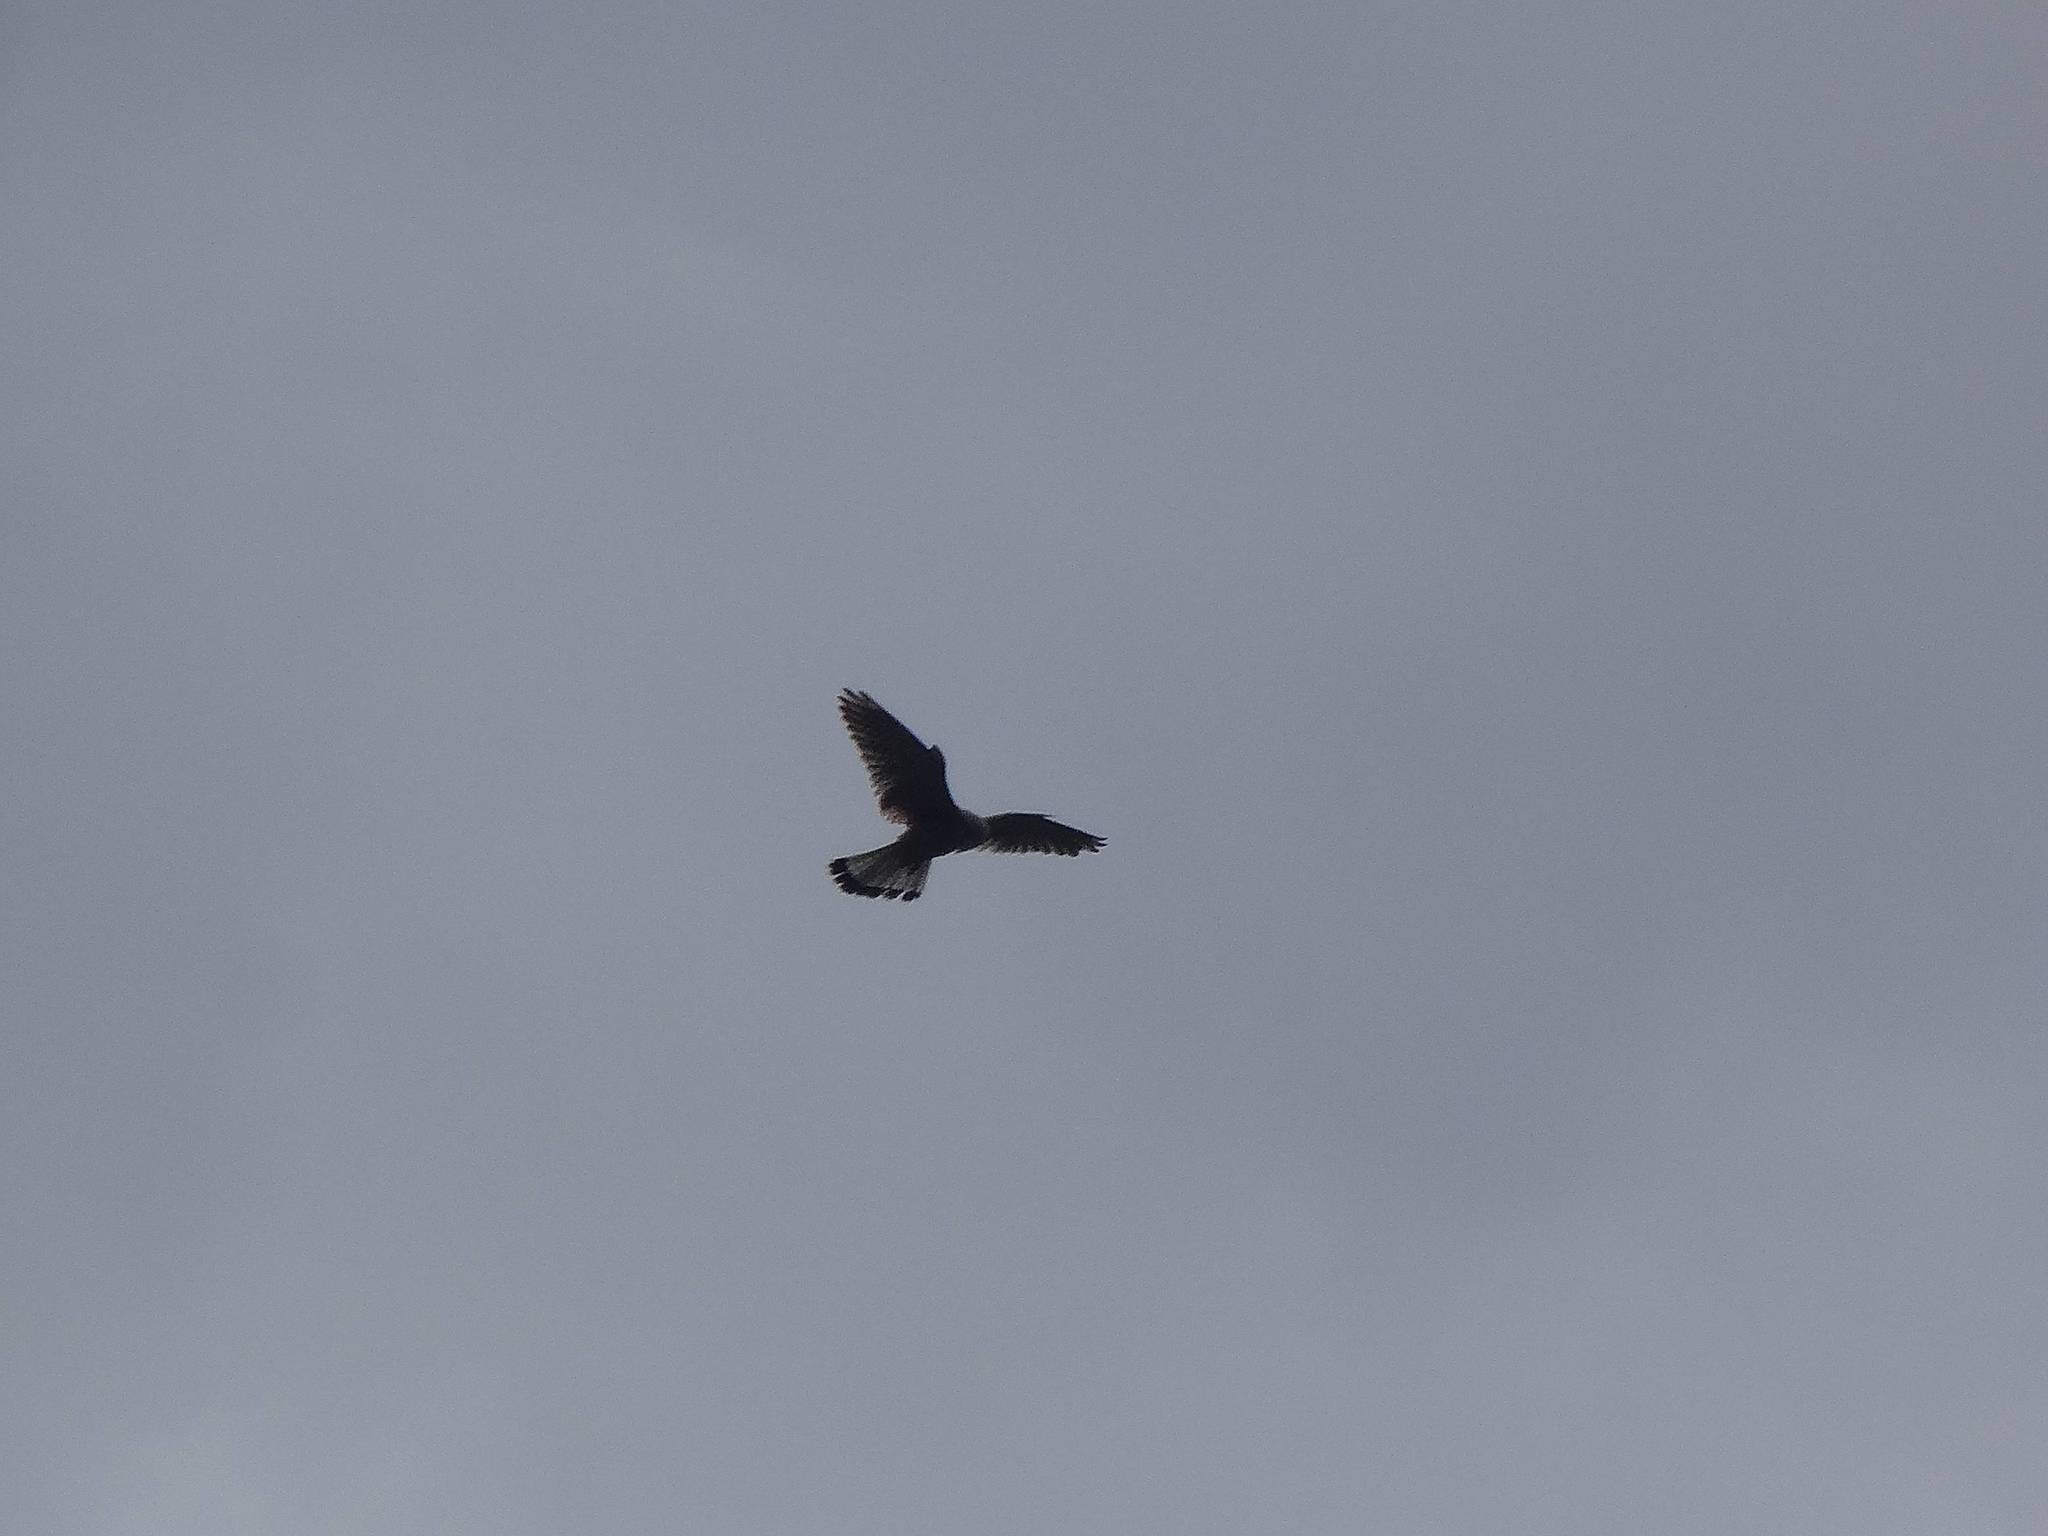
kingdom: Animalia
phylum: Chordata
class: Aves
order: Falconiformes
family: Falconidae
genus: Falco
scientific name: Falco tinnunculus
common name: Common kestrel
